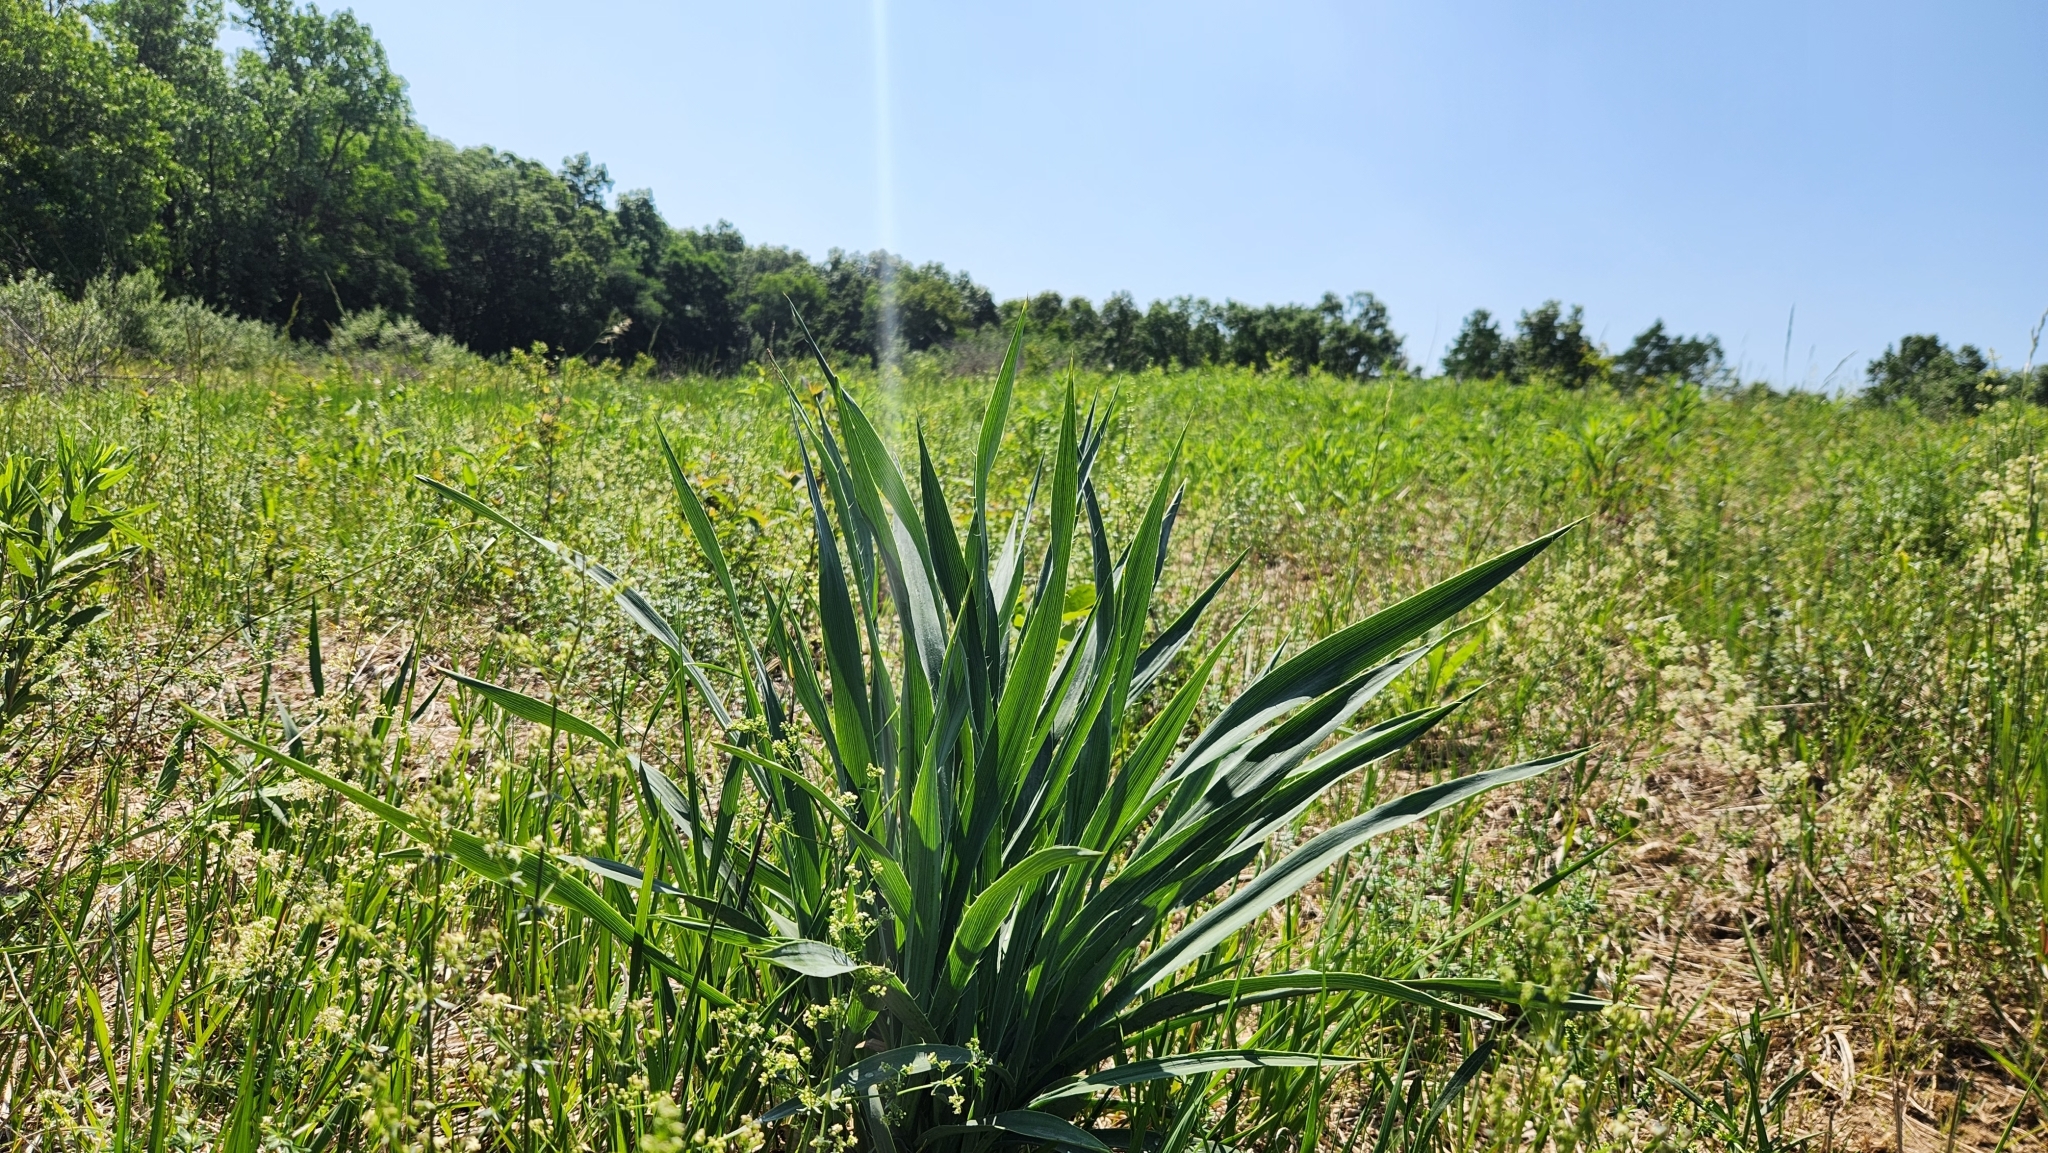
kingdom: Plantae
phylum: Tracheophyta
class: Magnoliopsida
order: Apiales
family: Apiaceae
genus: Eryngium
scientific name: Eryngium yuccifolium
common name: Button eryngo
